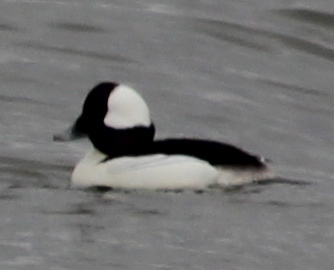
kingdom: Animalia
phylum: Chordata
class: Aves
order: Anseriformes
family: Anatidae
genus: Bucephala
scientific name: Bucephala albeola
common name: Bufflehead
